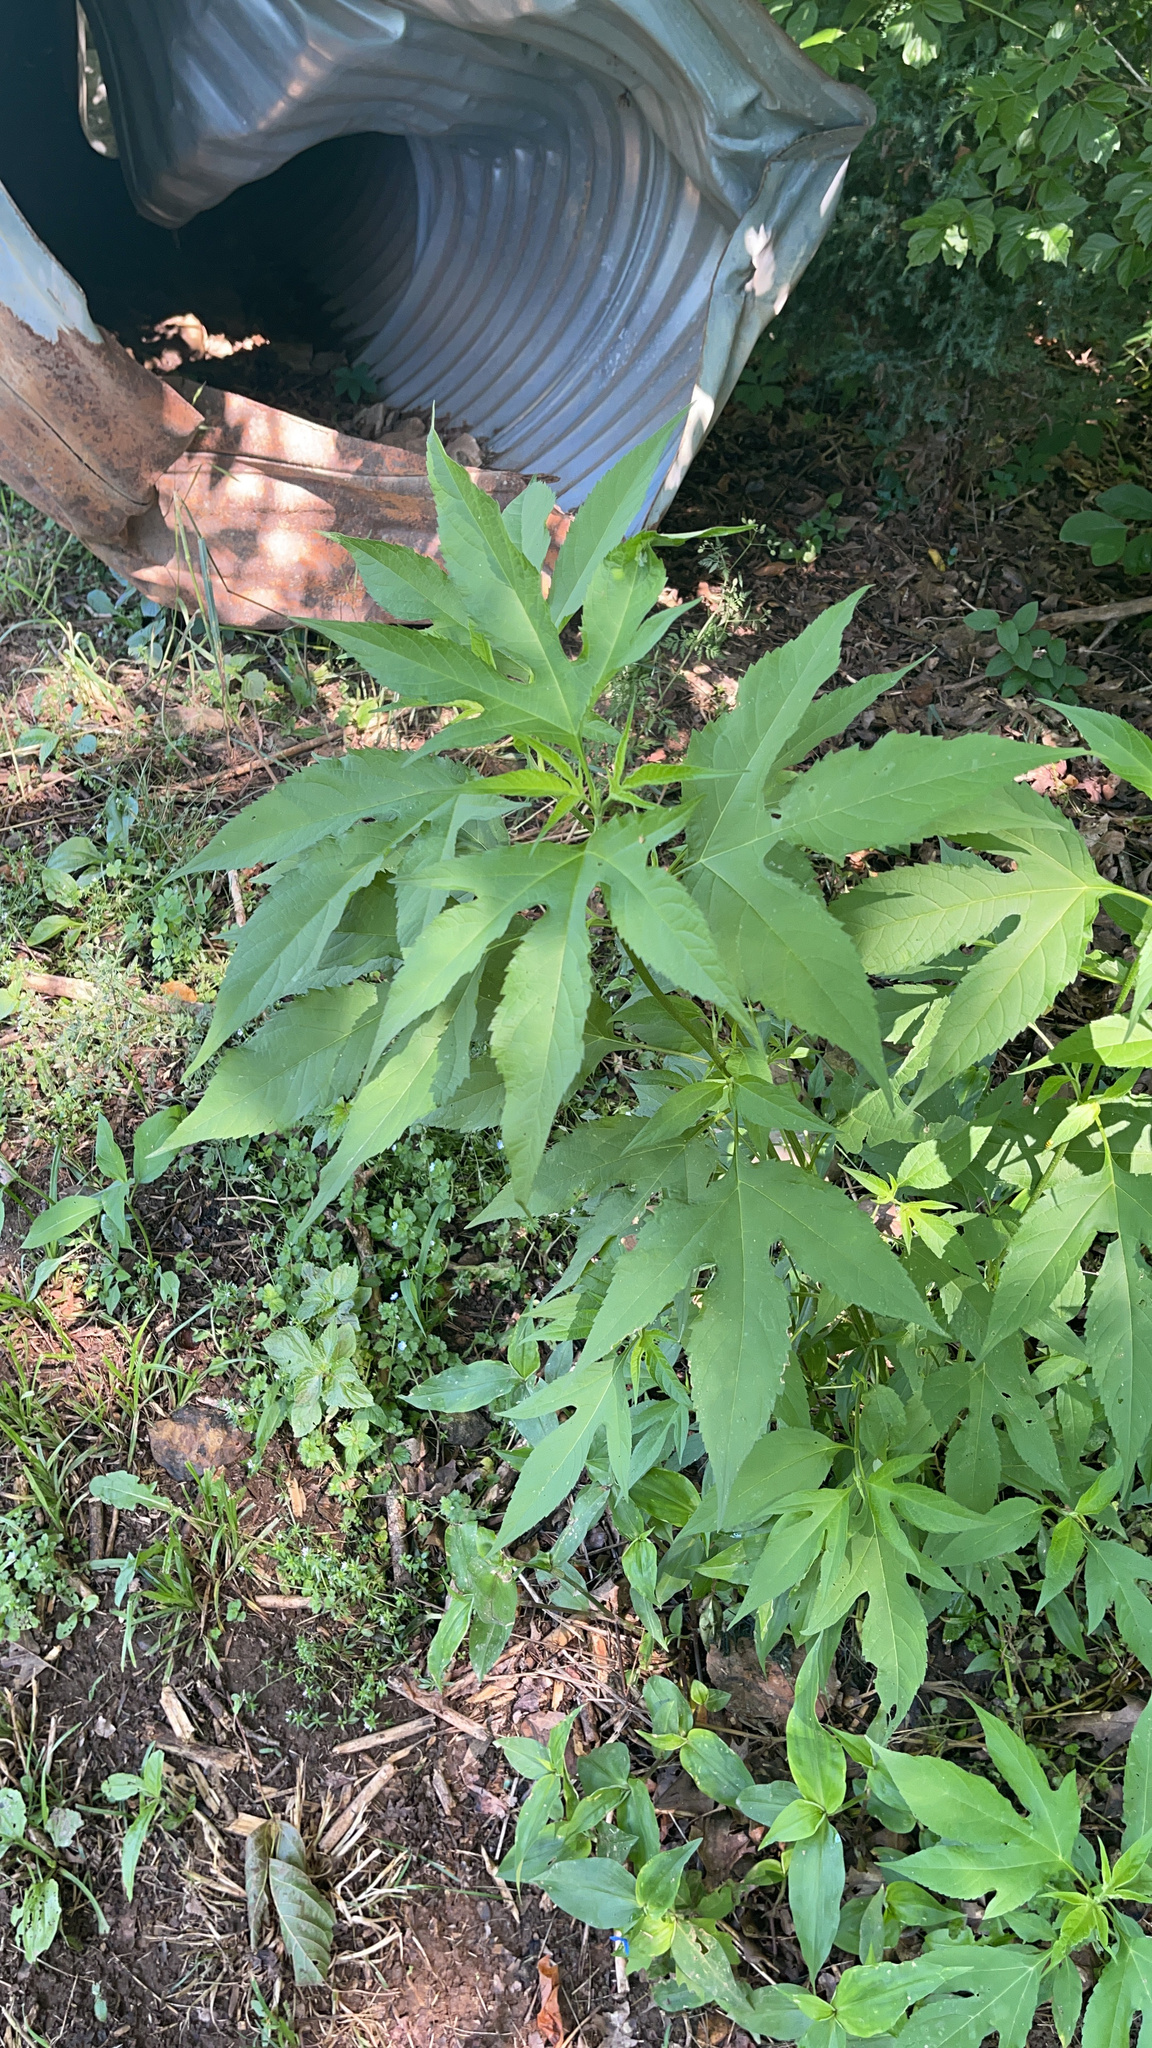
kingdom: Plantae
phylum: Tracheophyta
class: Magnoliopsida
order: Asterales
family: Asteraceae
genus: Ambrosia
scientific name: Ambrosia trifida
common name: Giant ragweed
